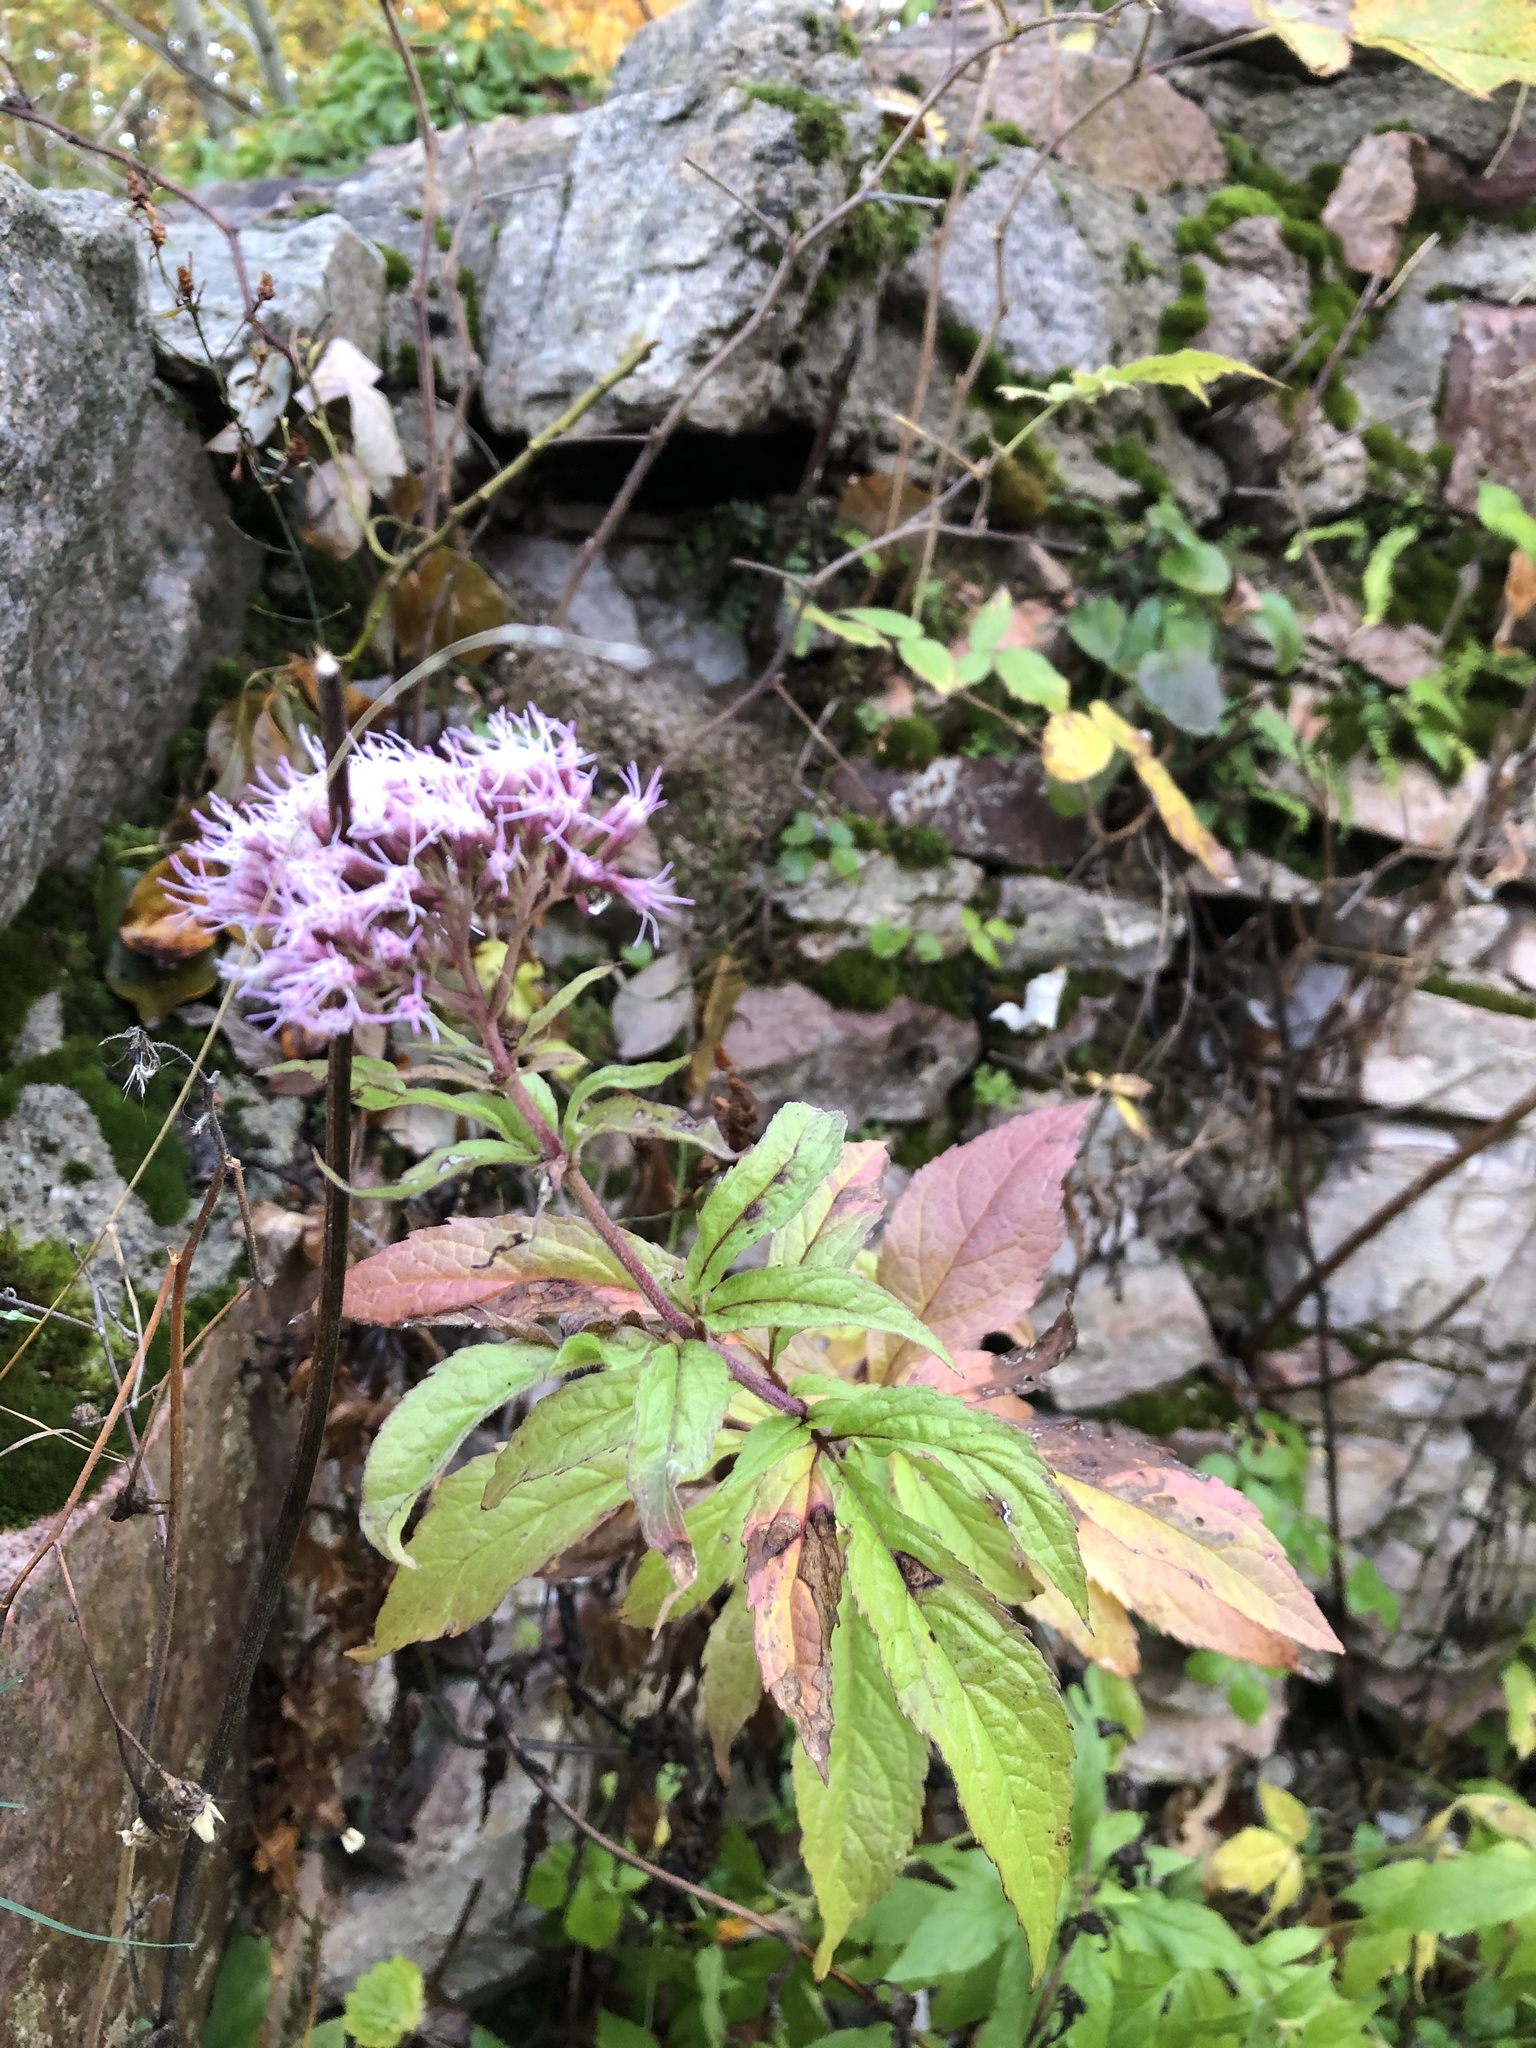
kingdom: Plantae
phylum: Tracheophyta
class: Magnoliopsida
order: Asterales
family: Asteraceae
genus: Eupatorium
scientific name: Eupatorium cannabinum
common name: Hemp-agrimony
